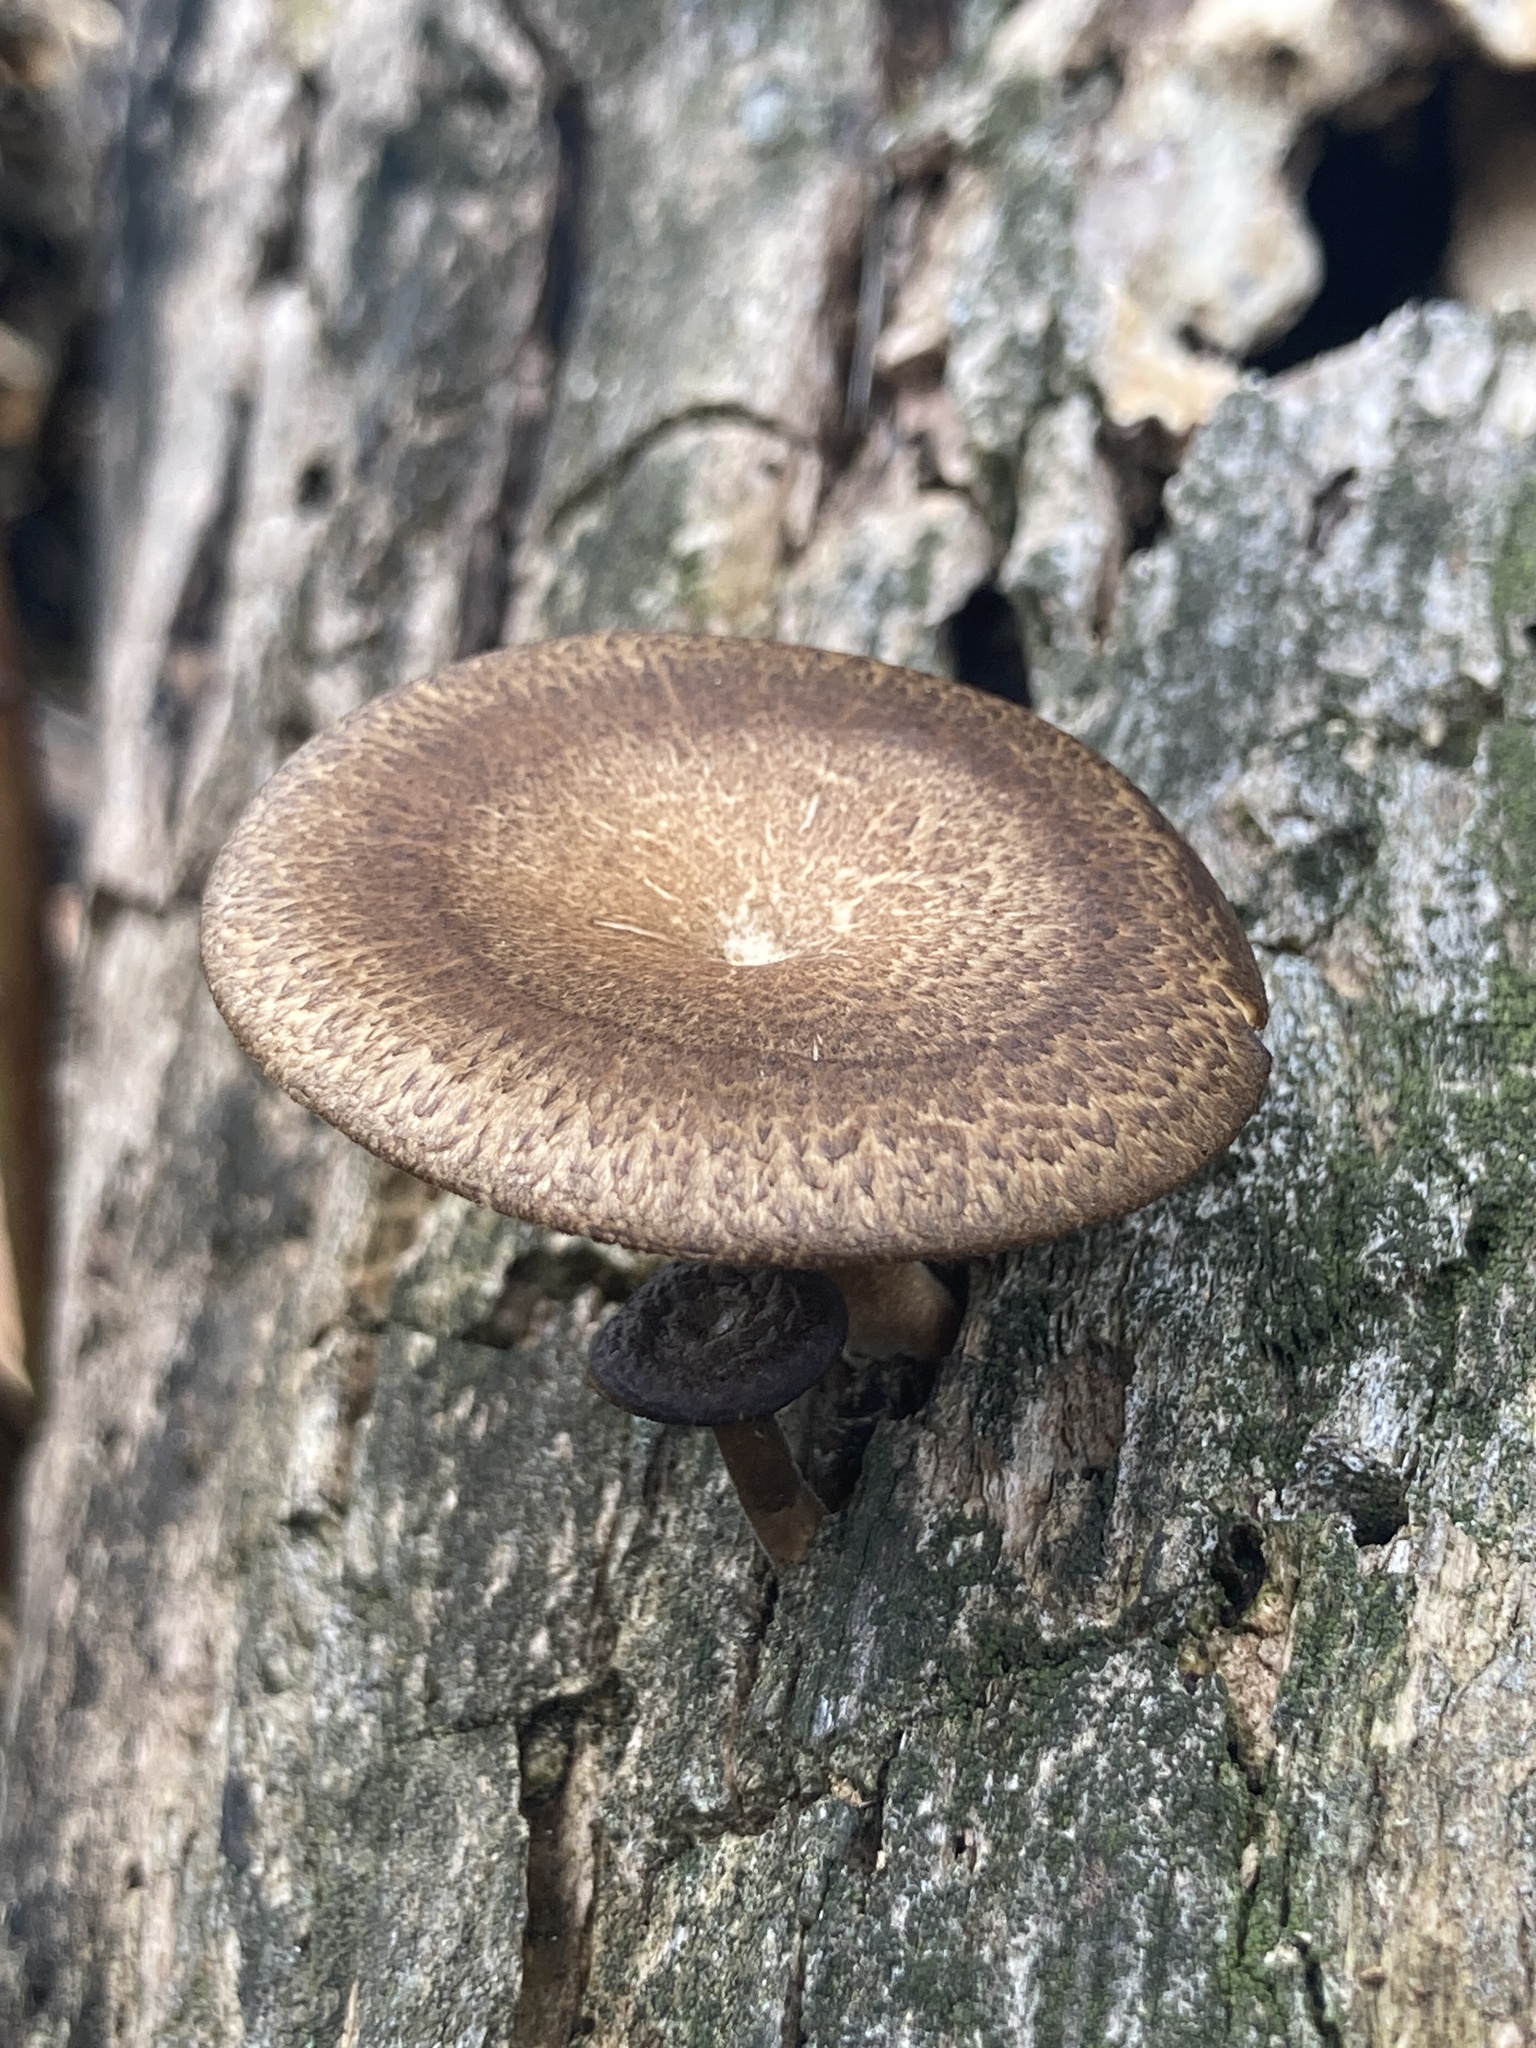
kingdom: Fungi
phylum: Basidiomycota
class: Agaricomycetes
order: Polyporales
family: Polyporaceae
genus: Lentinus
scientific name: Lentinus arcularius
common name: Spring polypore
